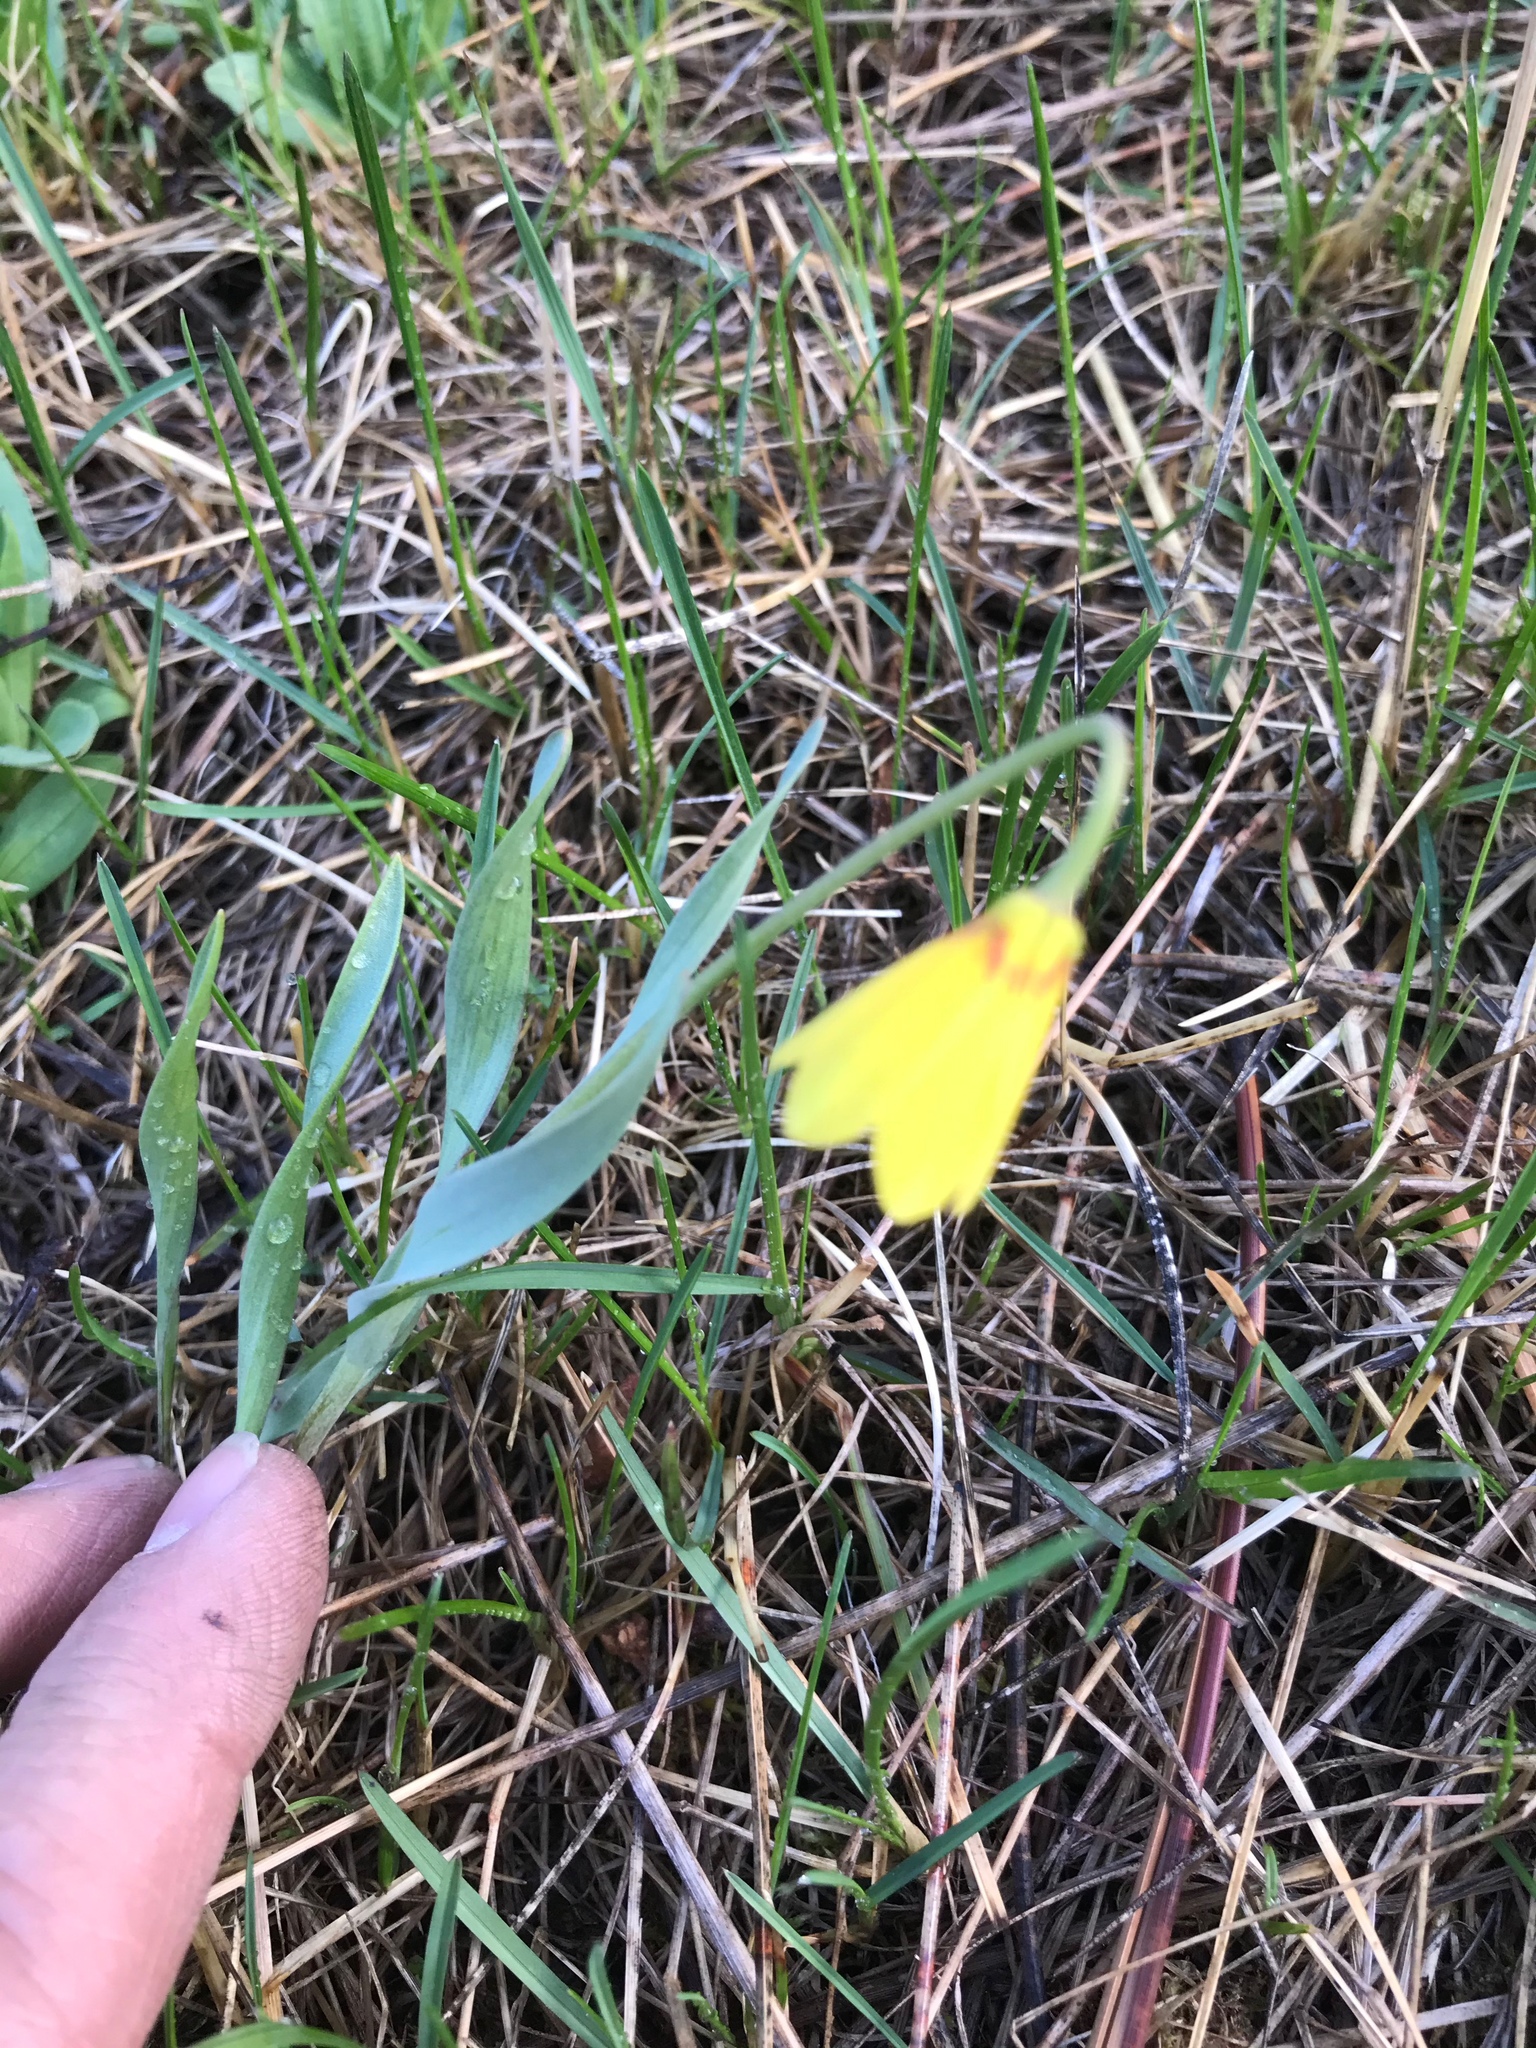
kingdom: Plantae
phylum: Tracheophyta
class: Liliopsida
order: Liliales
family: Liliaceae
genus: Fritillaria
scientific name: Fritillaria pudica
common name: Yellow fritillary
